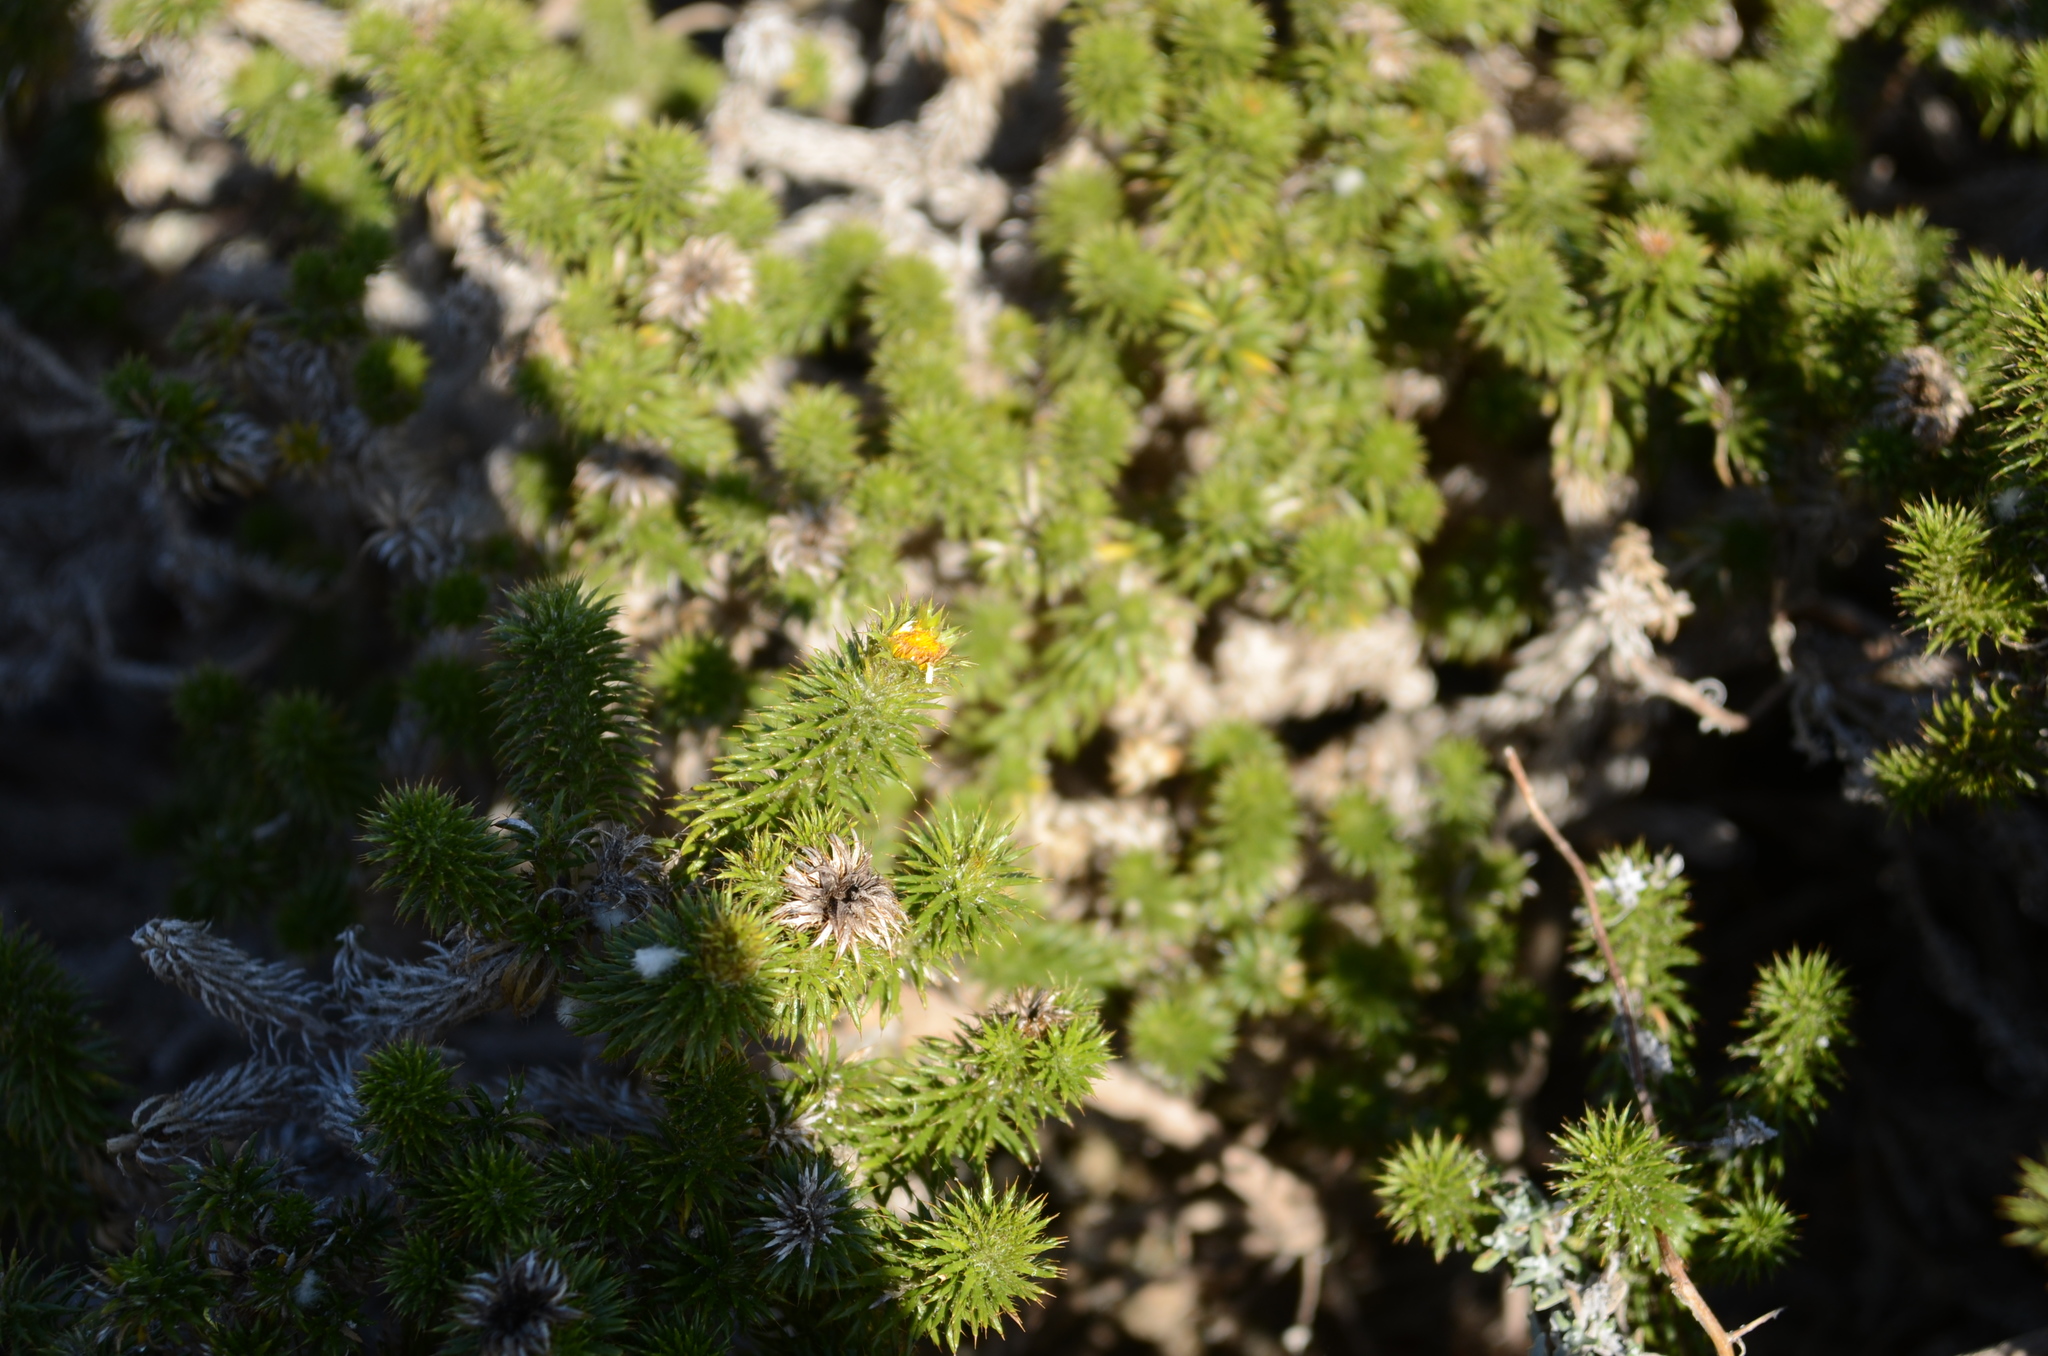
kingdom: Plantae
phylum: Tracheophyta
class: Magnoliopsida
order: Asterales
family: Asteraceae
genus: Cullumia
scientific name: Cullumia squarrosa
